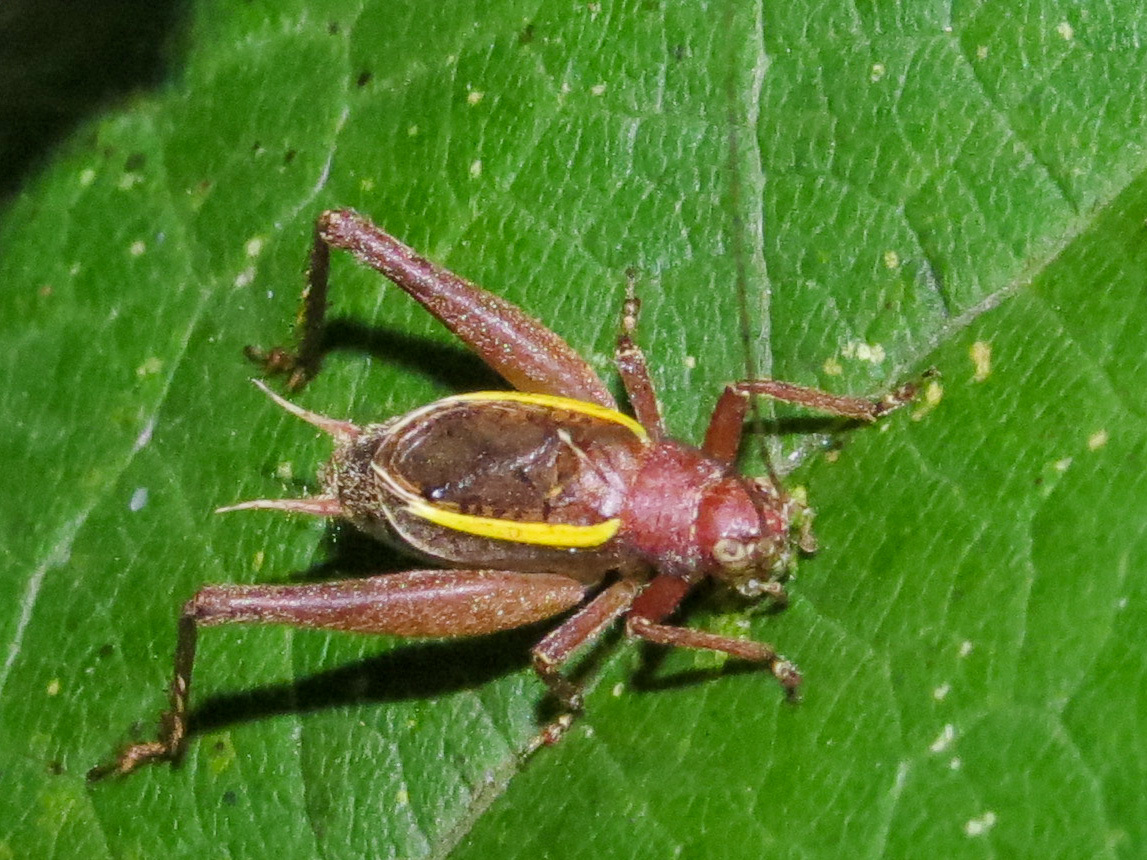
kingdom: Animalia
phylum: Arthropoda
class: Insecta
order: Orthoptera
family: Gryllidae
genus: Hapithus
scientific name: Hapithus agitator
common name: Restless bush cricket
